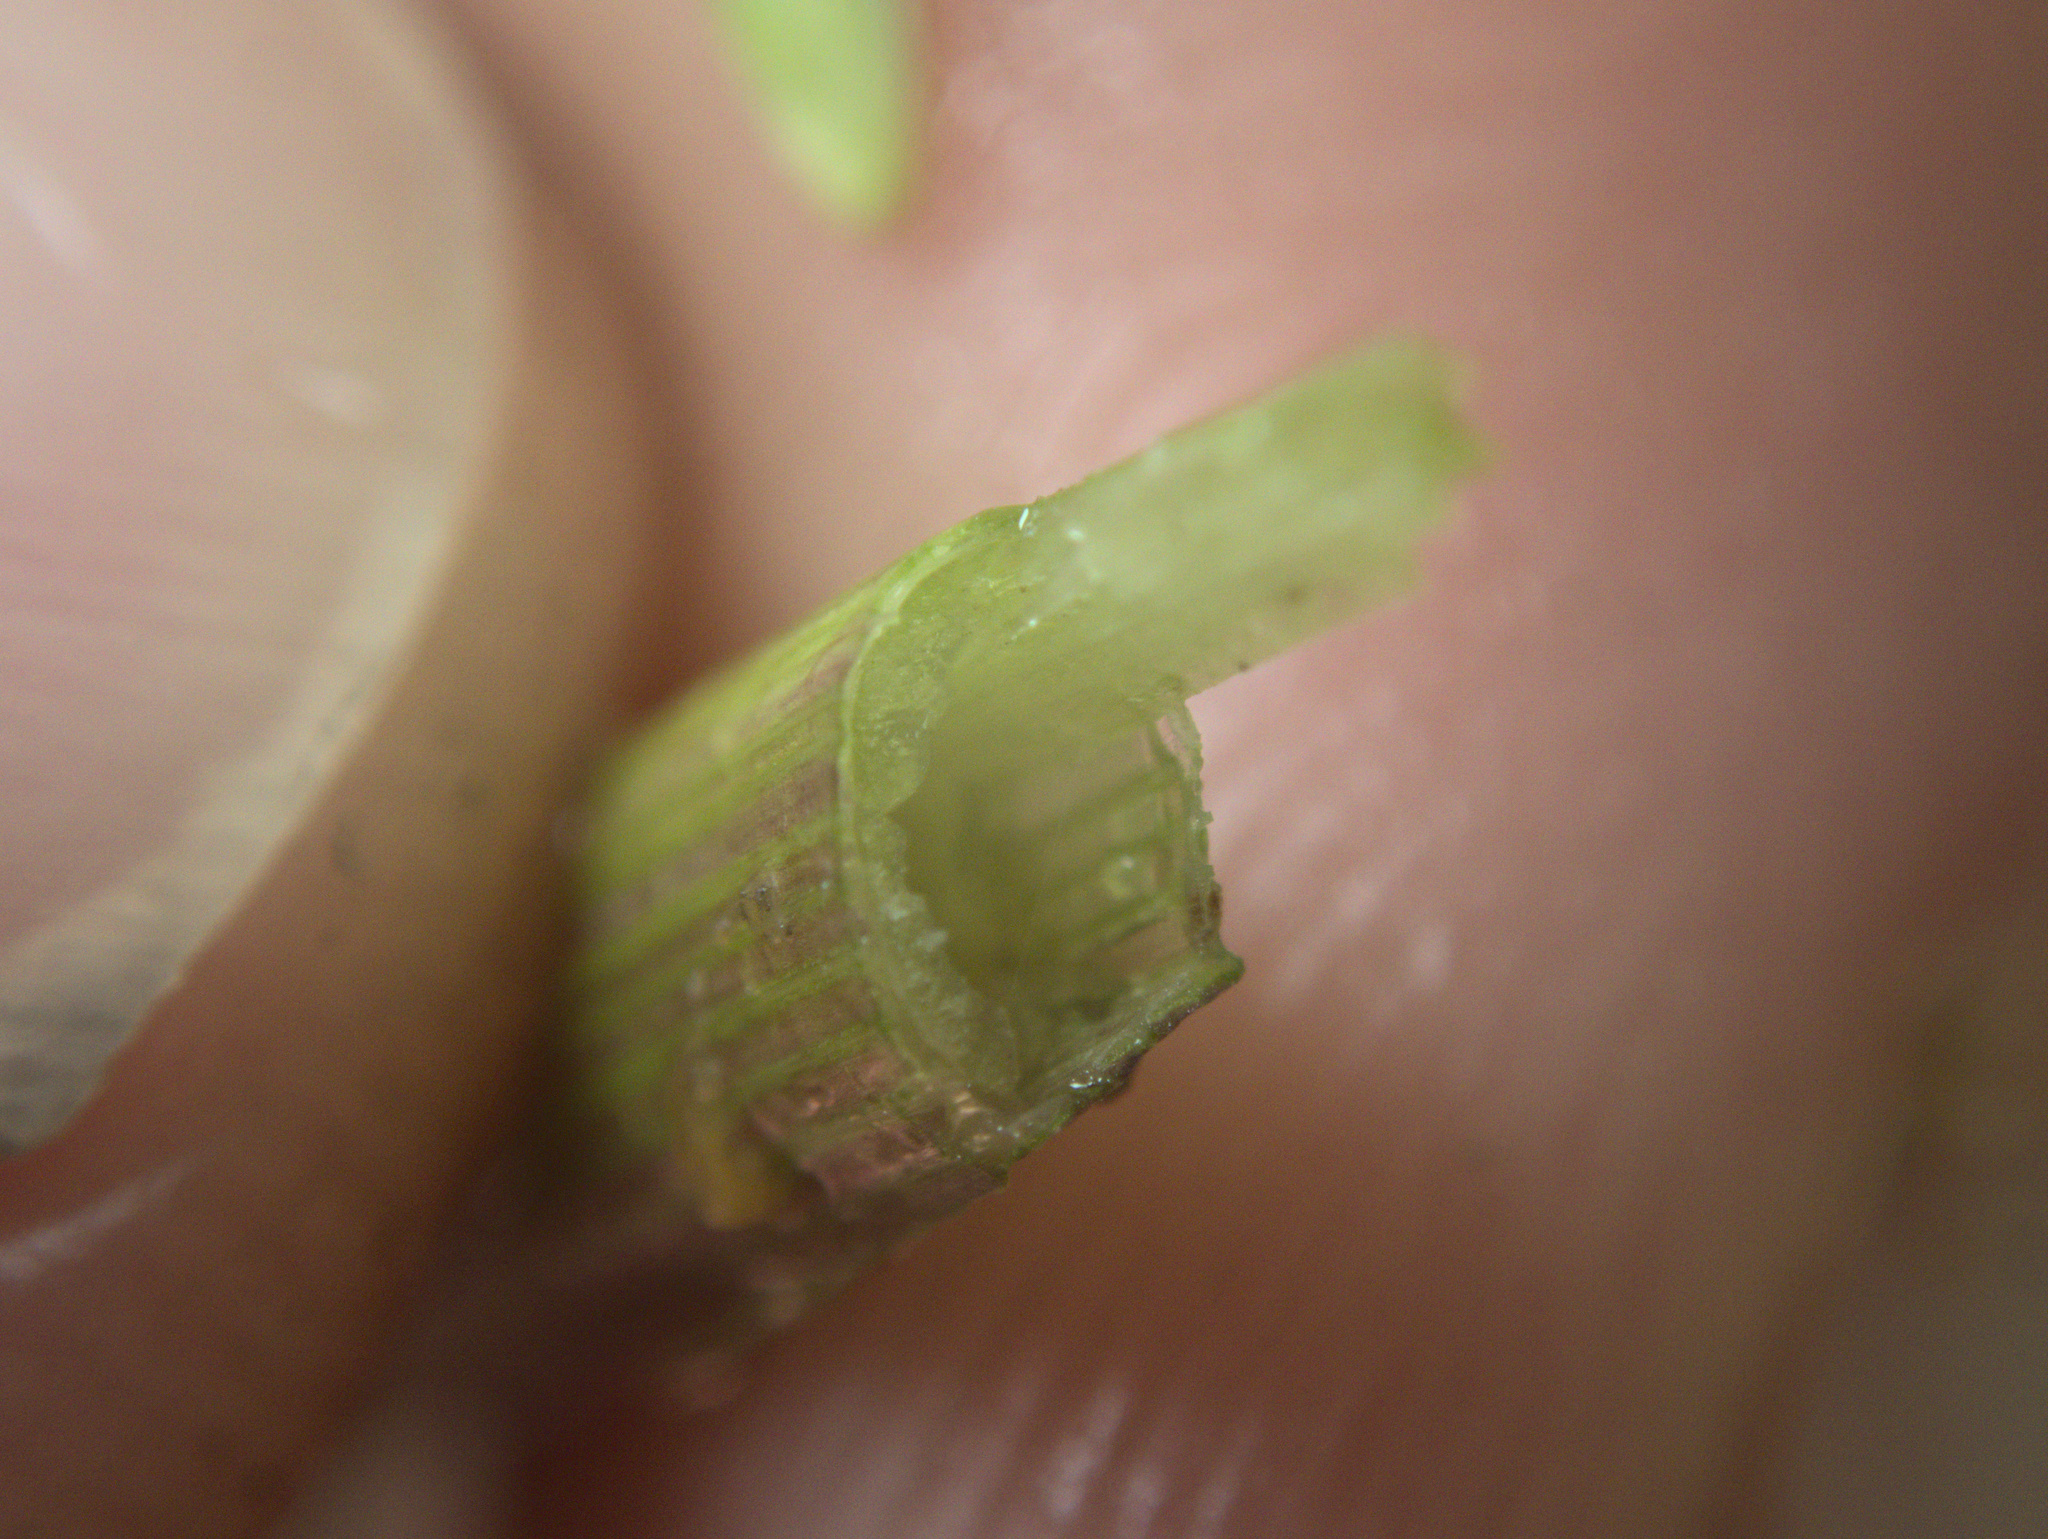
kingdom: Plantae
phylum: Tracheophyta
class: Liliopsida
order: Poales
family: Poaceae
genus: Glyceria
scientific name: Glyceria declinata
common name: Small sweet-grass
